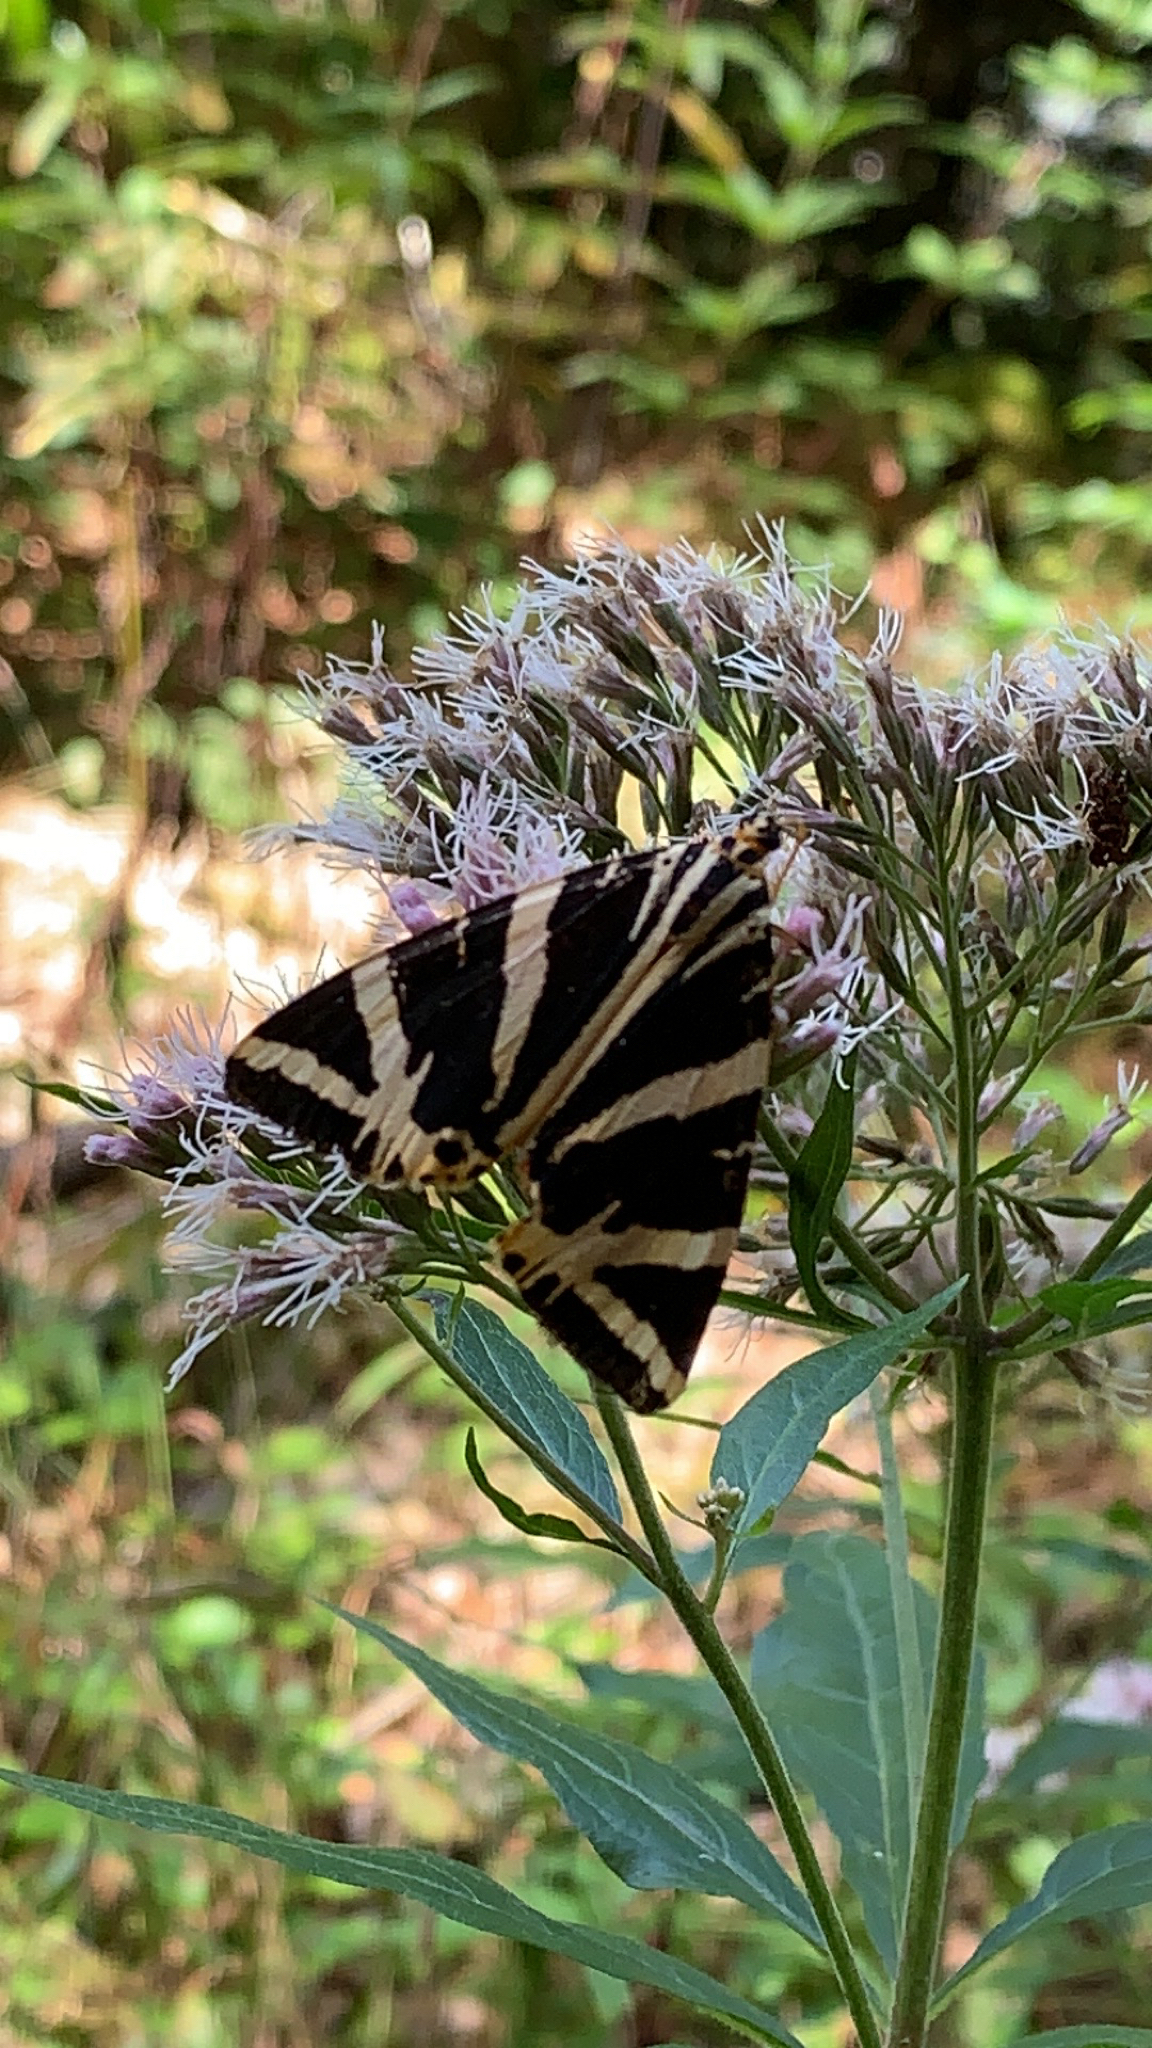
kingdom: Animalia
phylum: Arthropoda
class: Insecta
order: Lepidoptera
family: Erebidae
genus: Euplagia
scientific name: Euplagia quadripunctaria
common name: Jersey tiger
